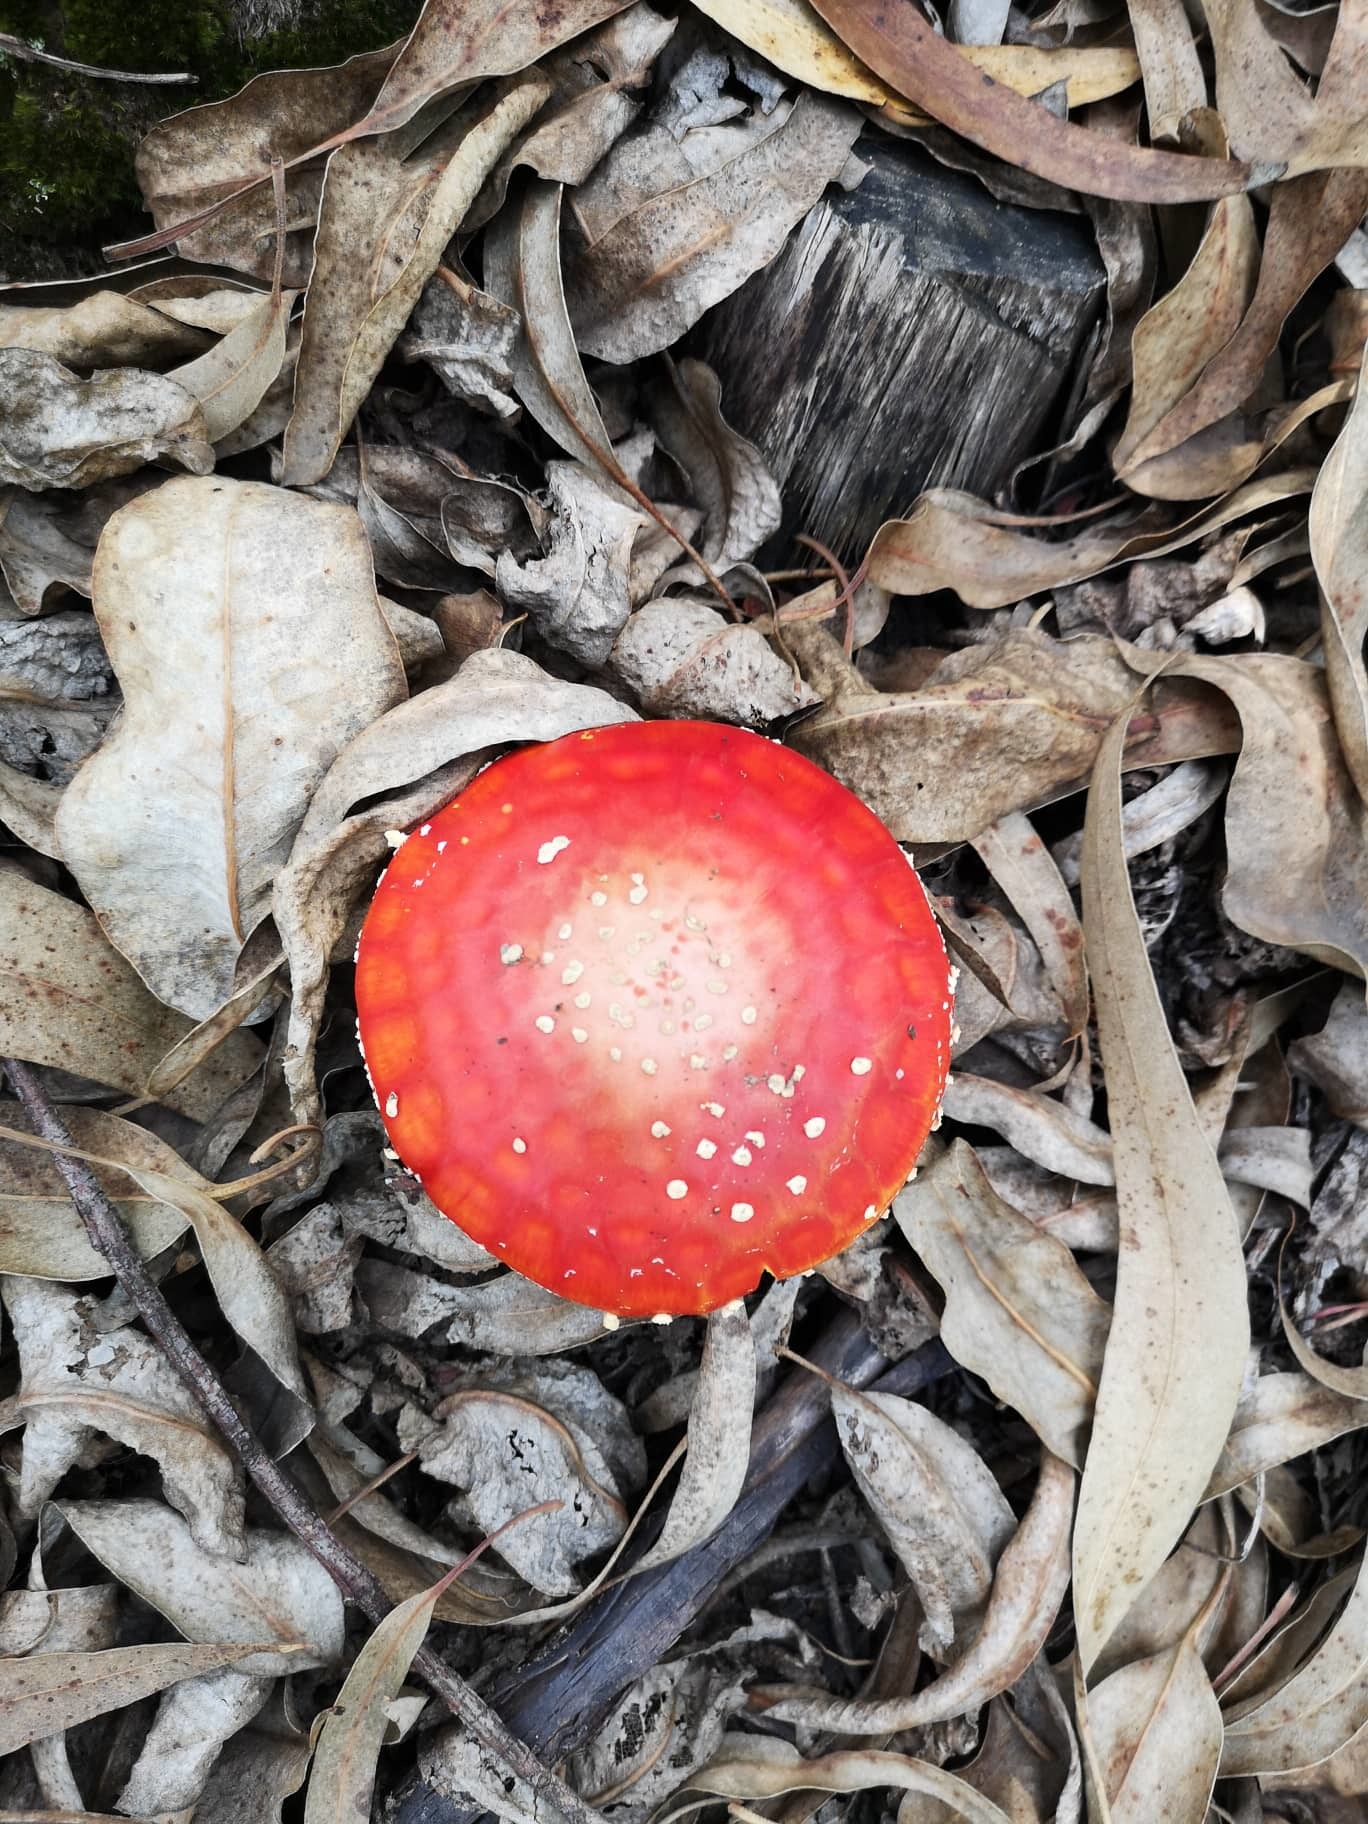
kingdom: Fungi
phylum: Basidiomycota
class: Agaricomycetes
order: Agaricales
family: Amanitaceae
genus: Amanita
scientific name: Amanita muscaria
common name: Fly agaric
